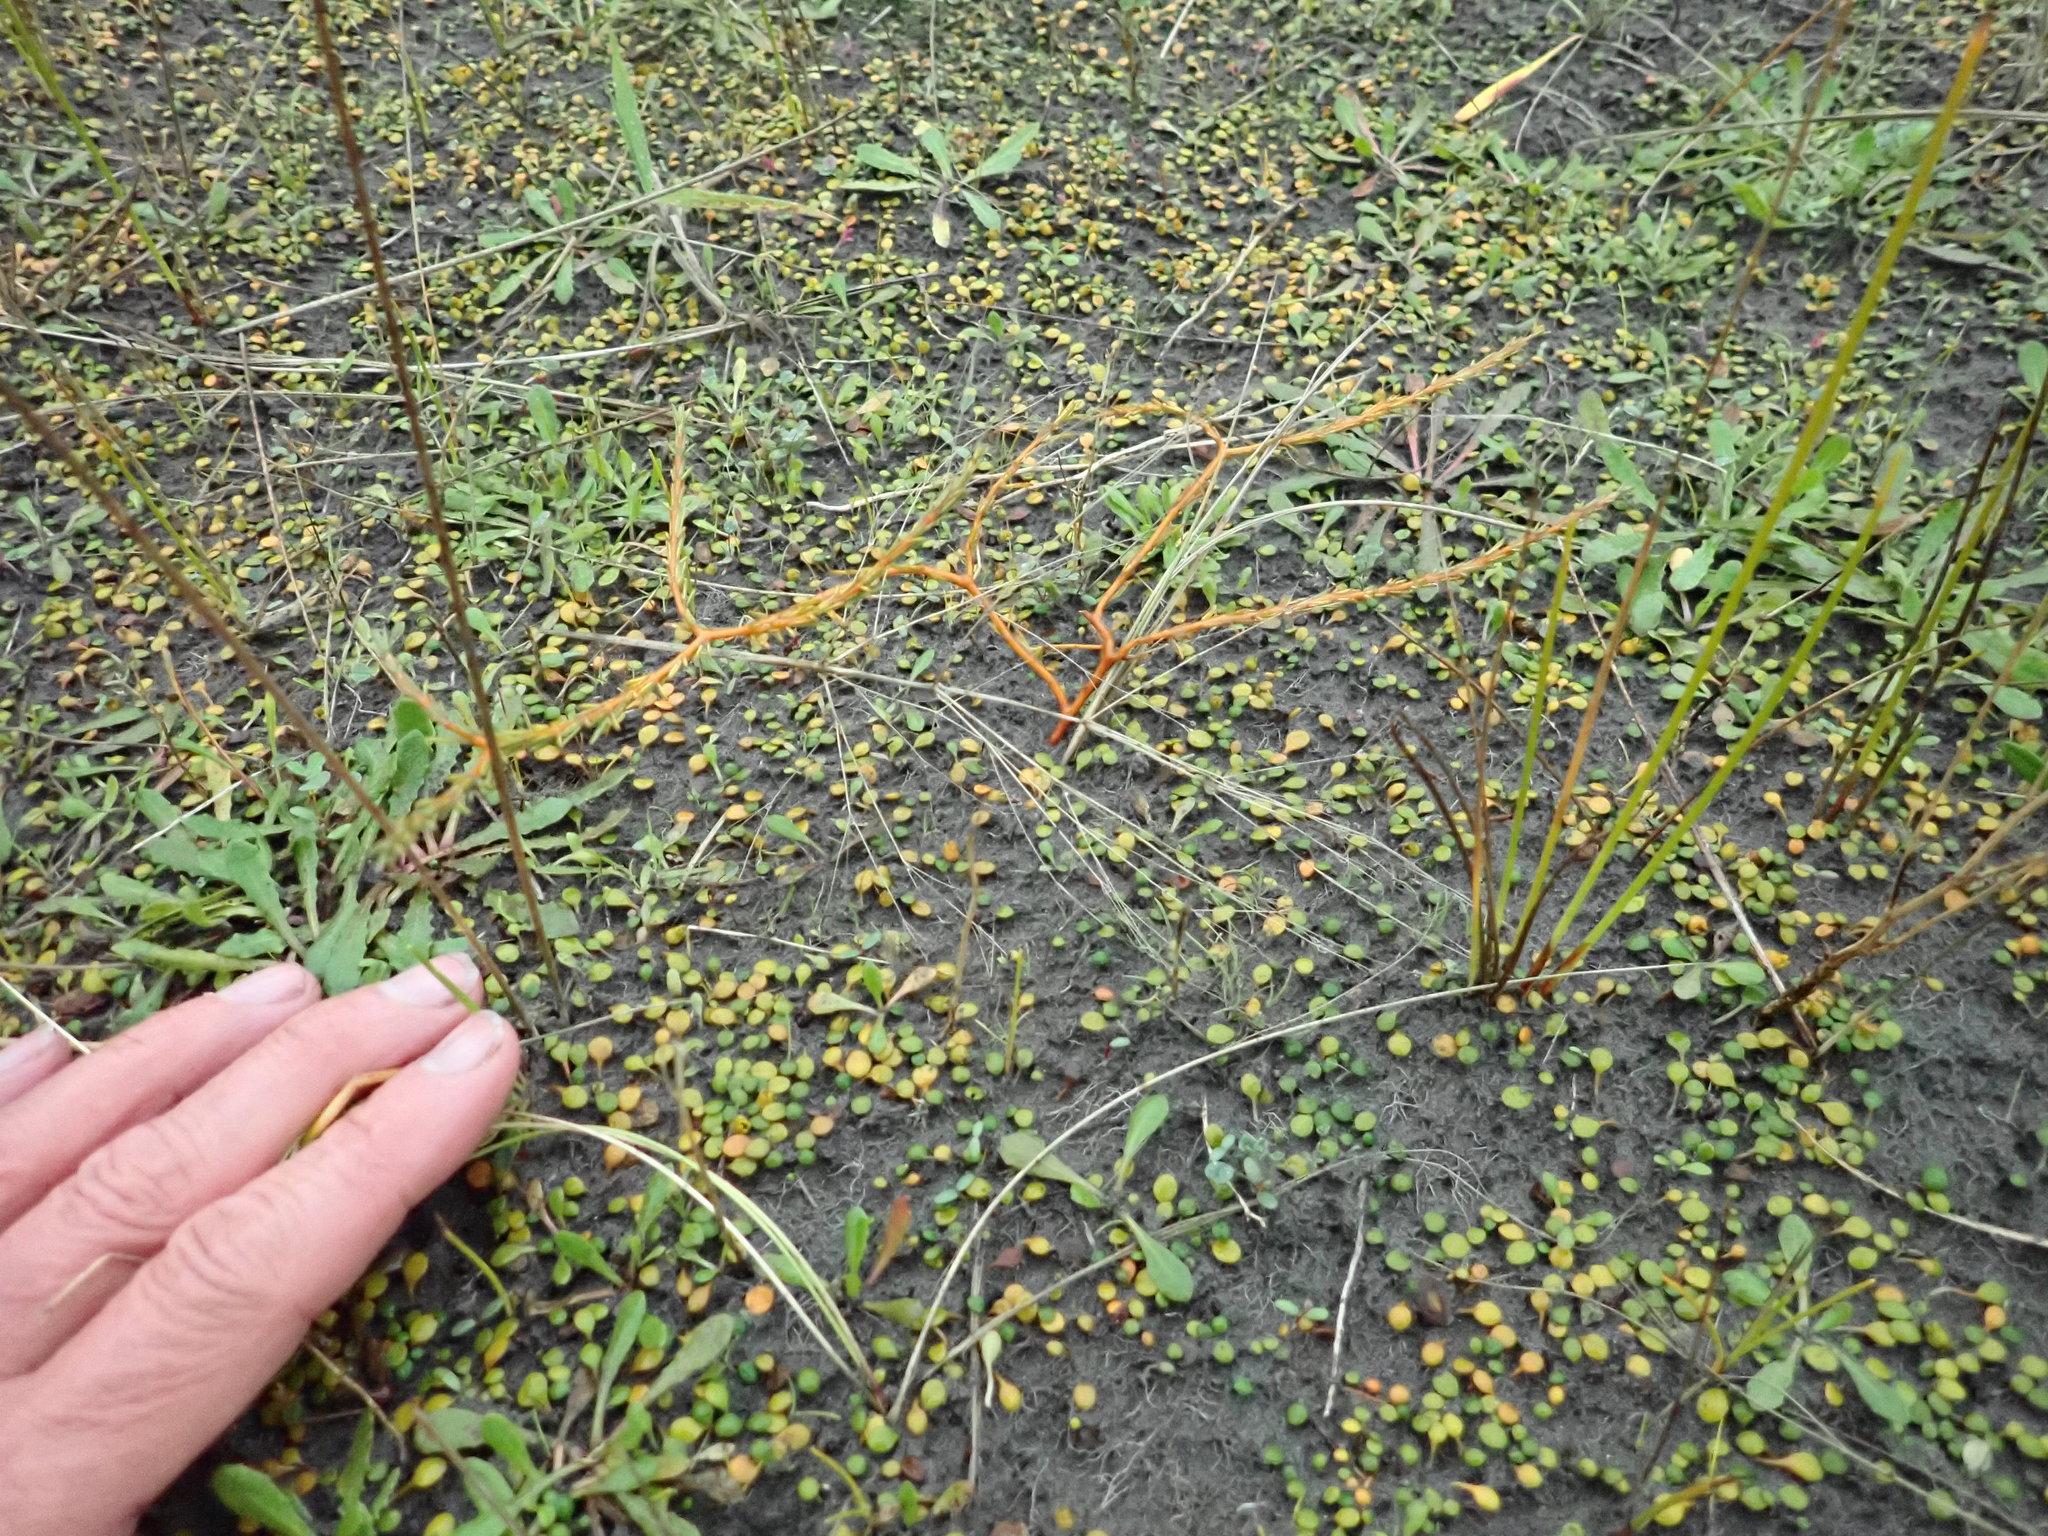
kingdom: Plantae
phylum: Tracheophyta
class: Magnoliopsida
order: Gentianales
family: Rubiaceae
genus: Coprosma
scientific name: Coprosma acerosa
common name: Sand coprosma
